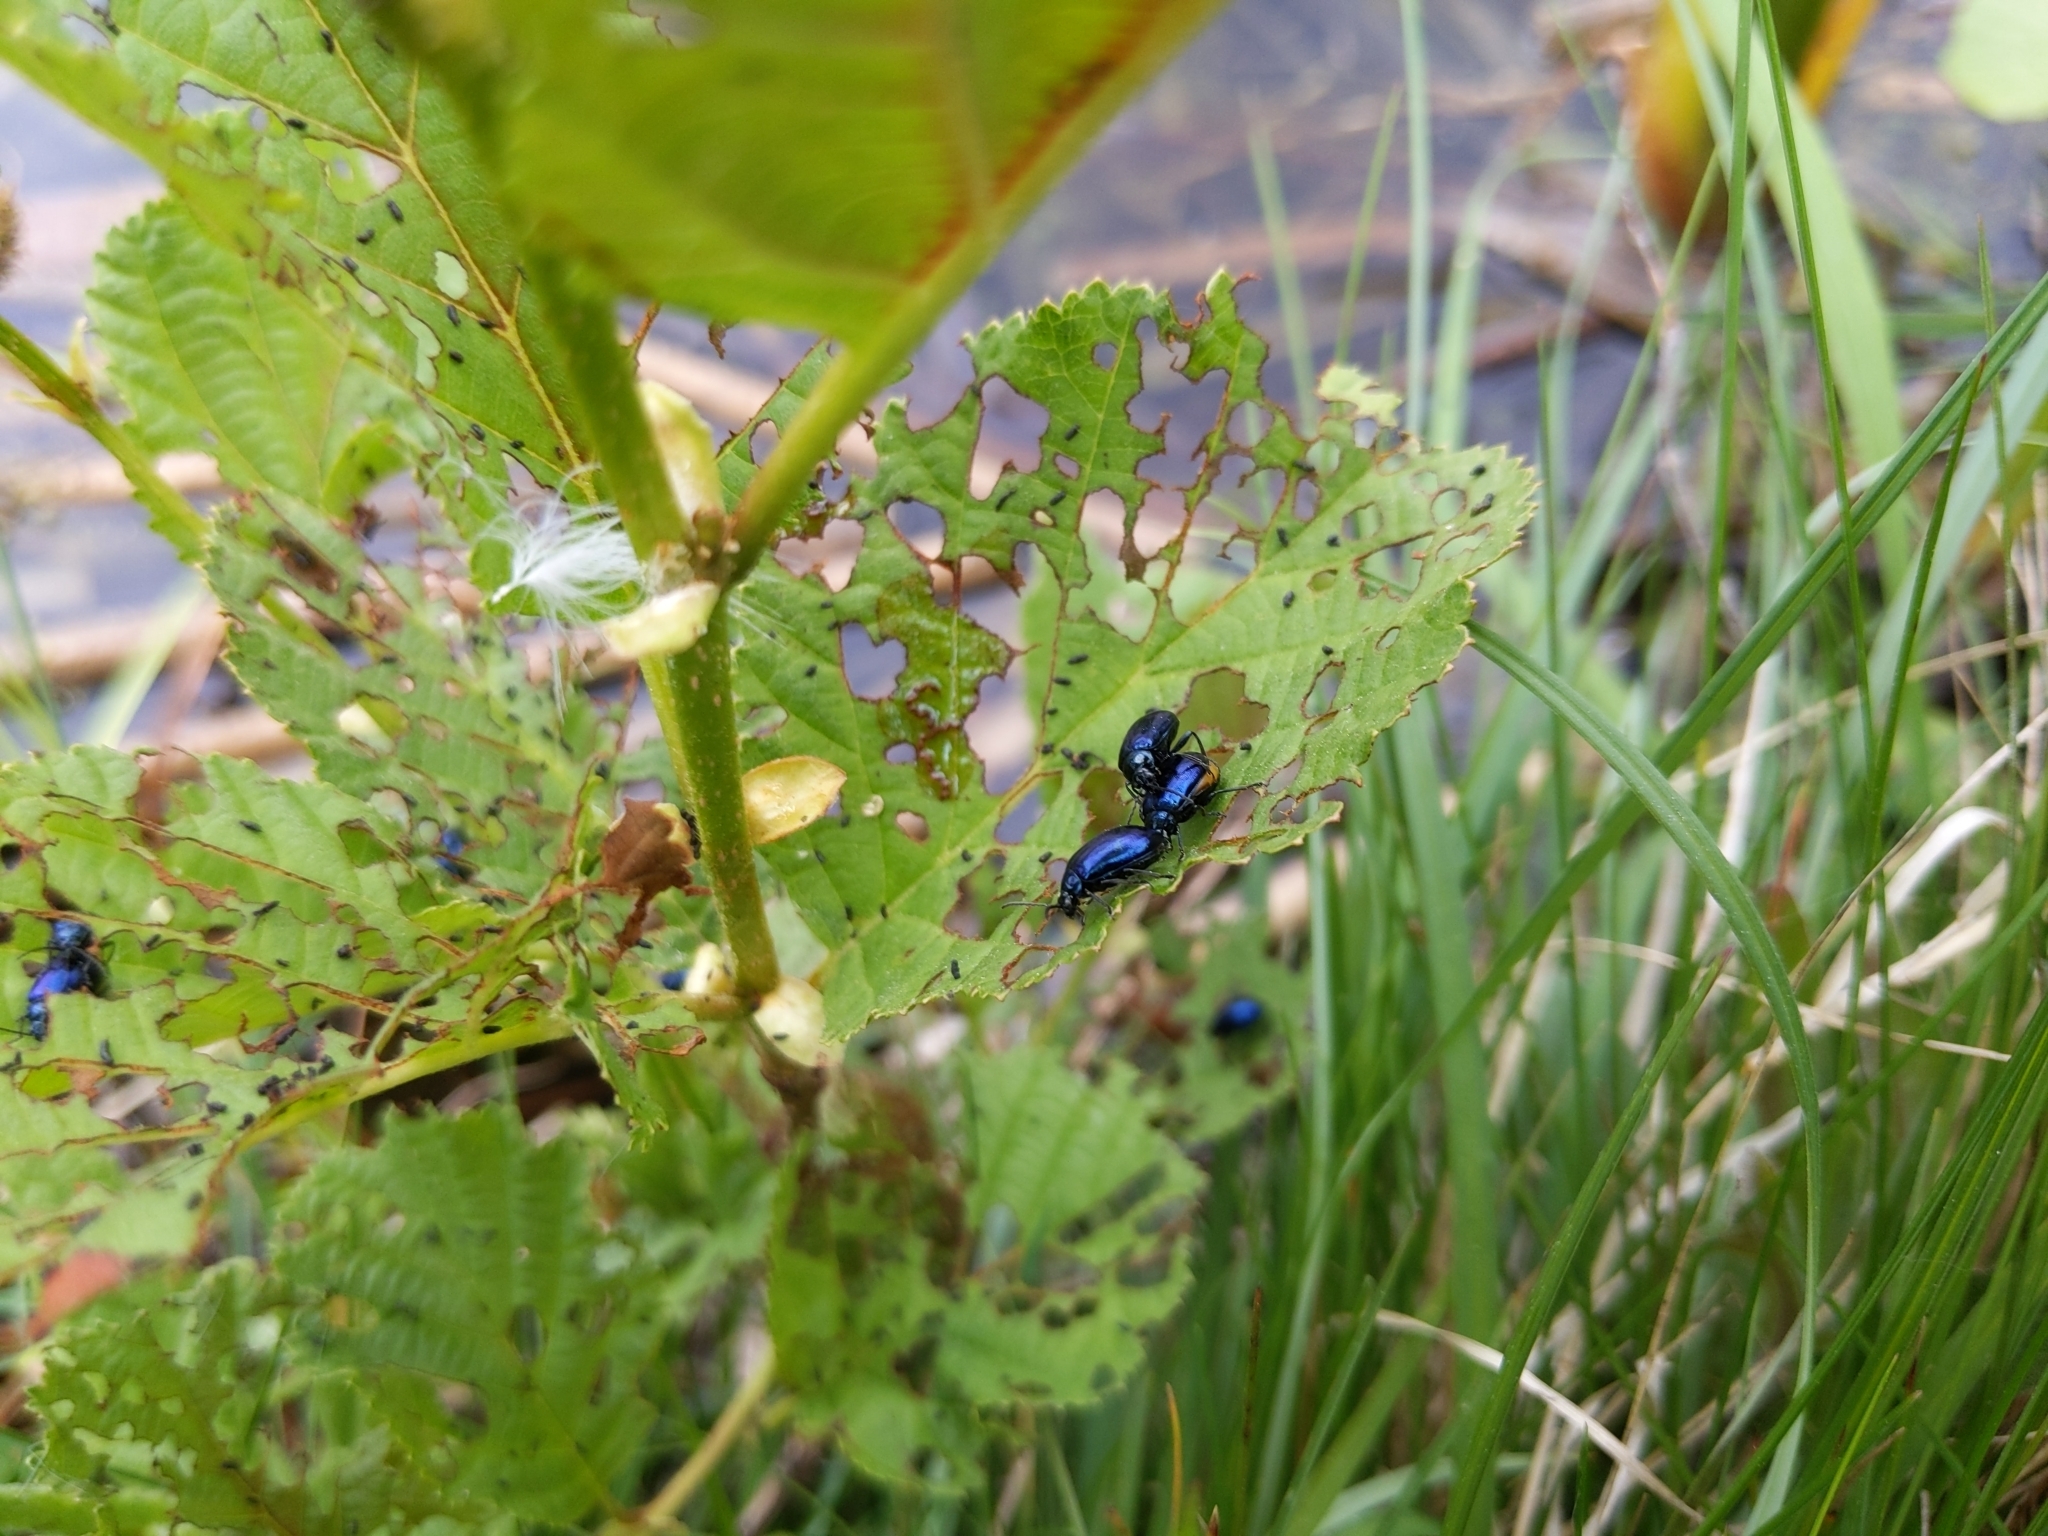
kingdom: Animalia
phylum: Arthropoda
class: Insecta
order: Coleoptera
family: Chrysomelidae
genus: Agelastica
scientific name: Agelastica alni
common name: Alder leaf beetle
